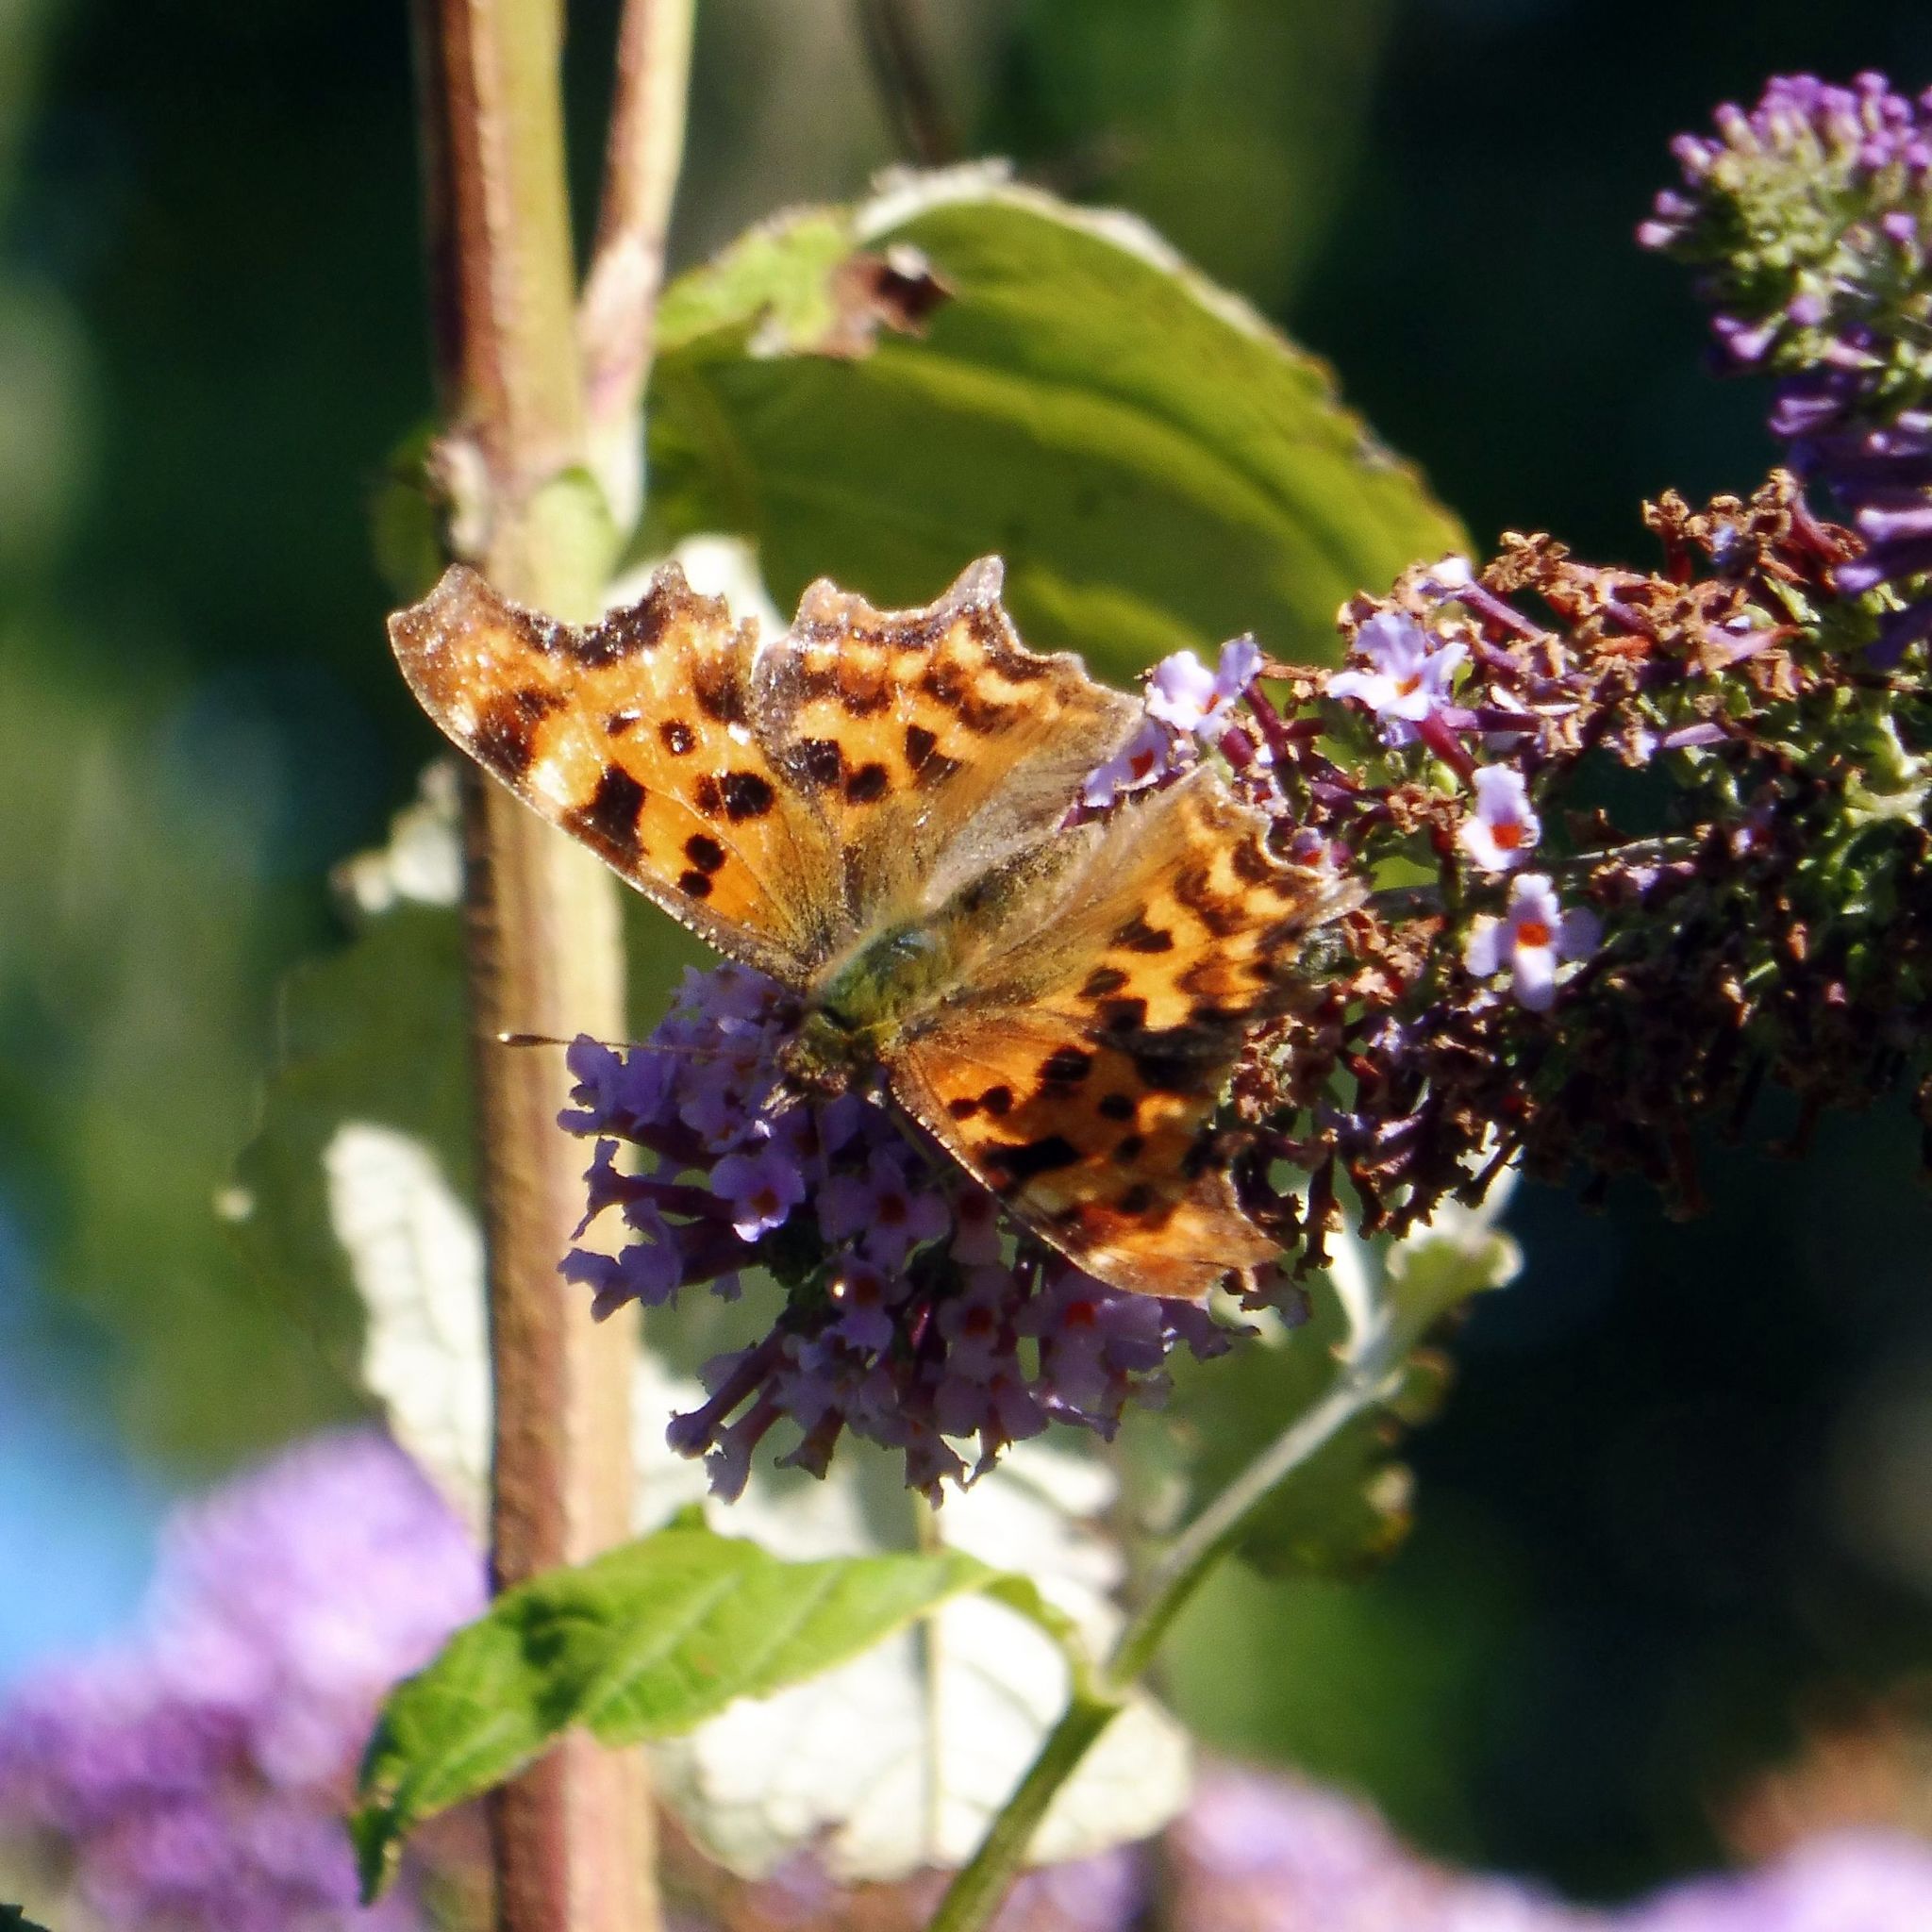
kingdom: Animalia
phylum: Arthropoda
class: Insecta
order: Lepidoptera
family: Nymphalidae
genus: Polygonia
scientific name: Polygonia c-album
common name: Comma
